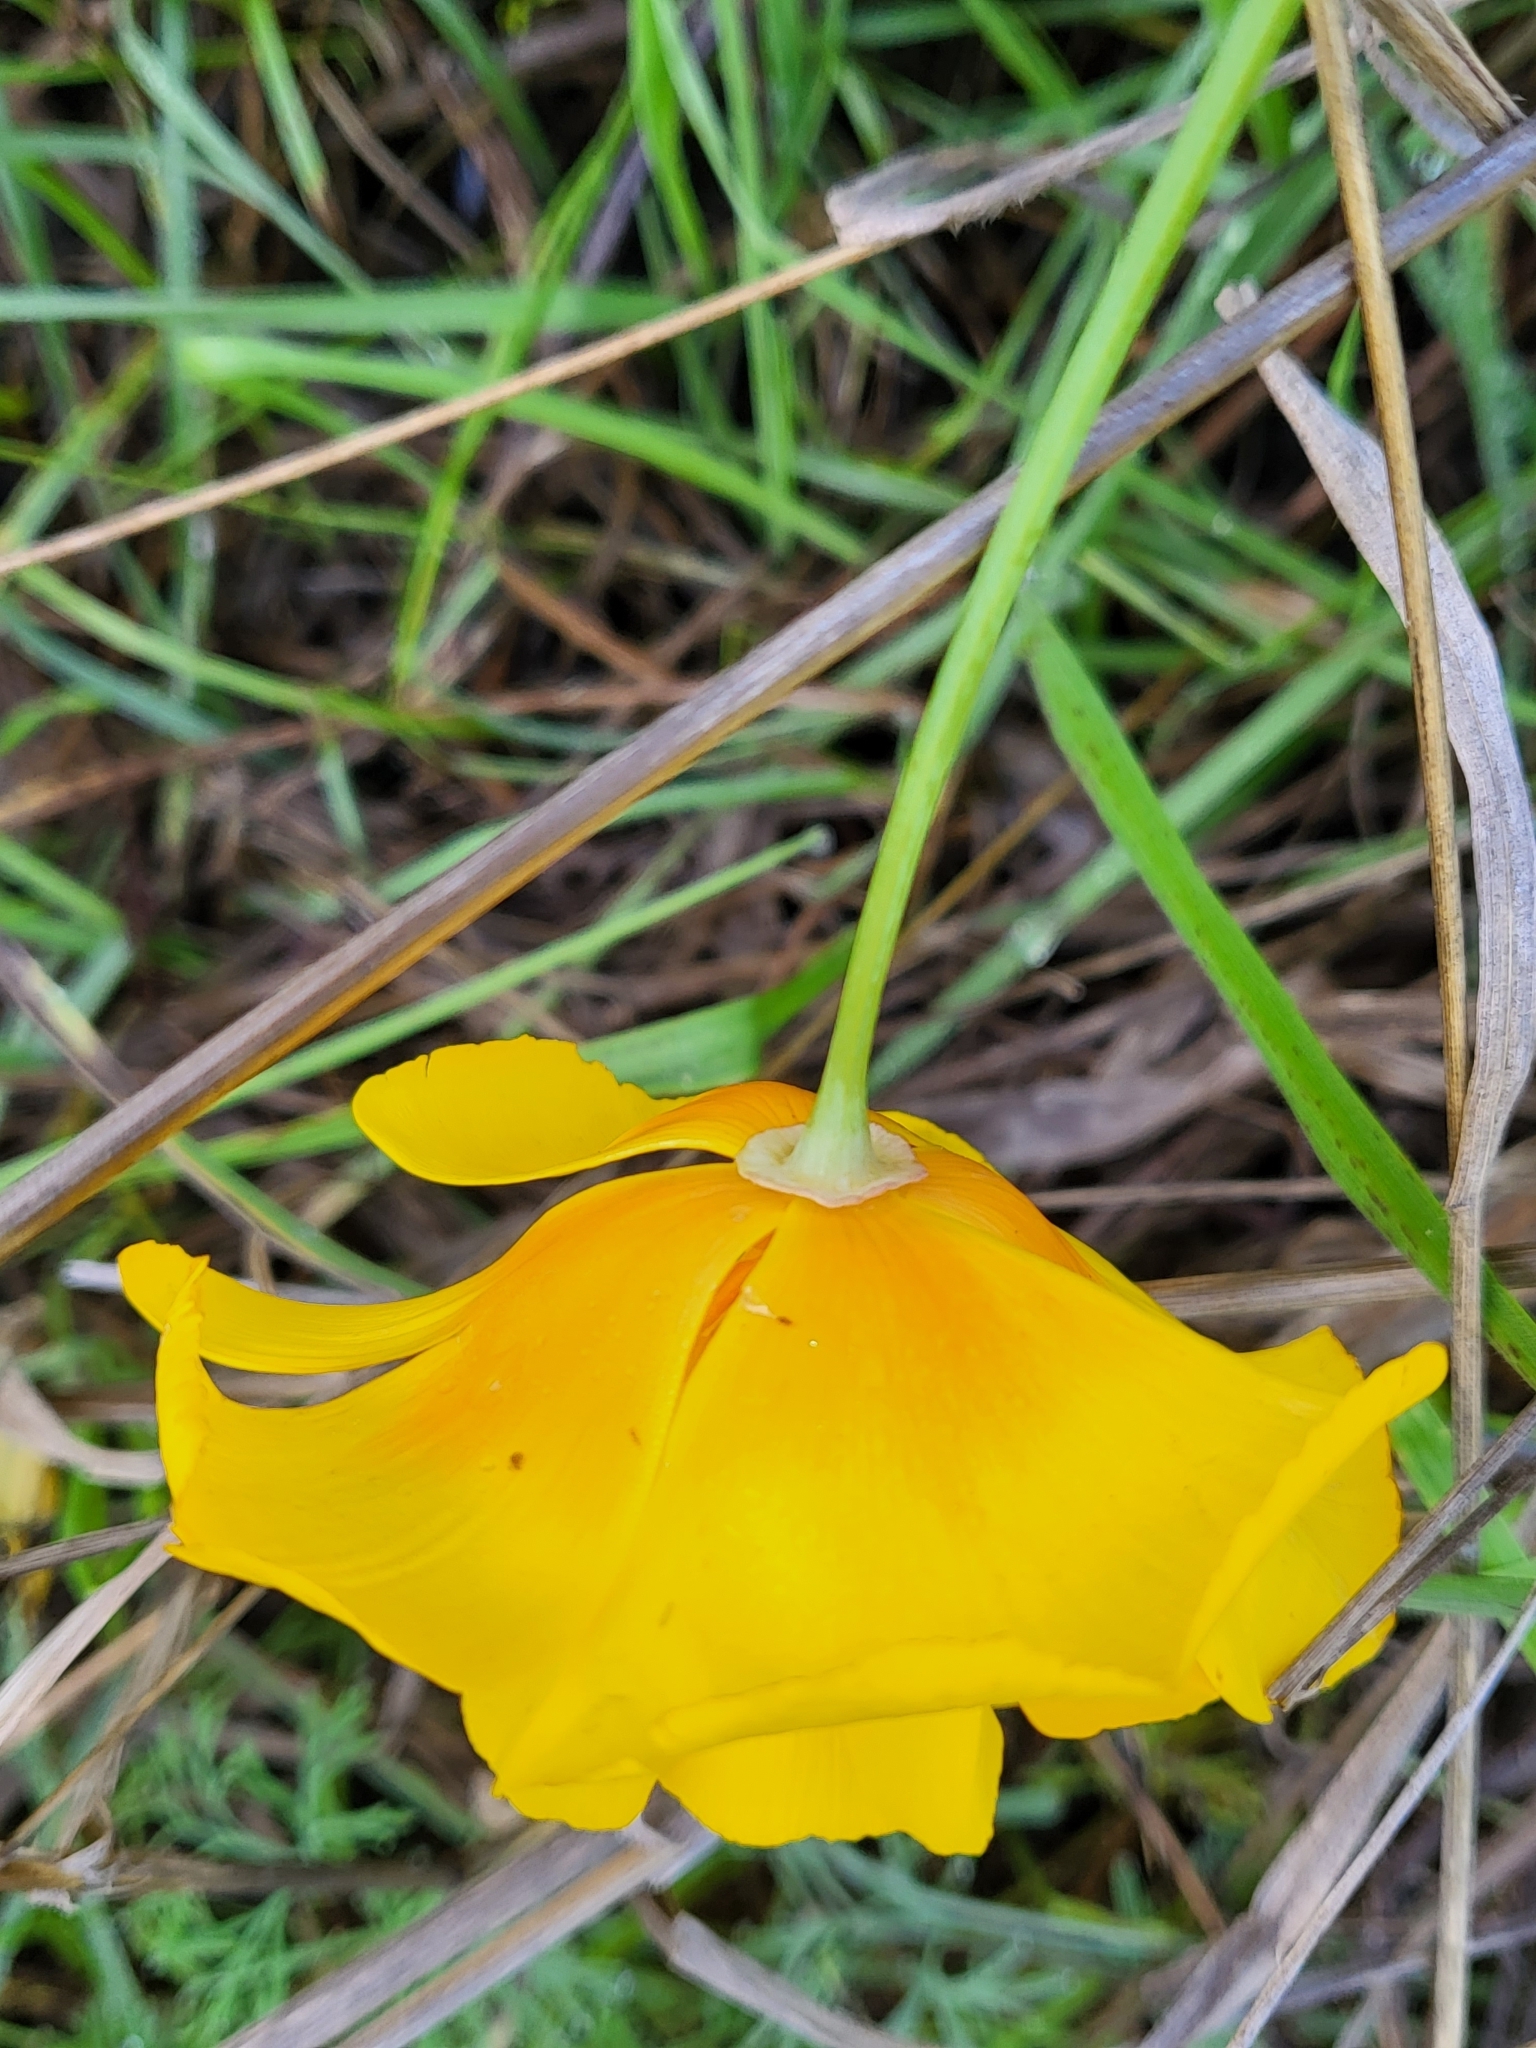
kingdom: Plantae
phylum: Tracheophyta
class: Magnoliopsida
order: Ranunculales
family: Papaveraceae
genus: Eschscholzia
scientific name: Eschscholzia californica
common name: California poppy
